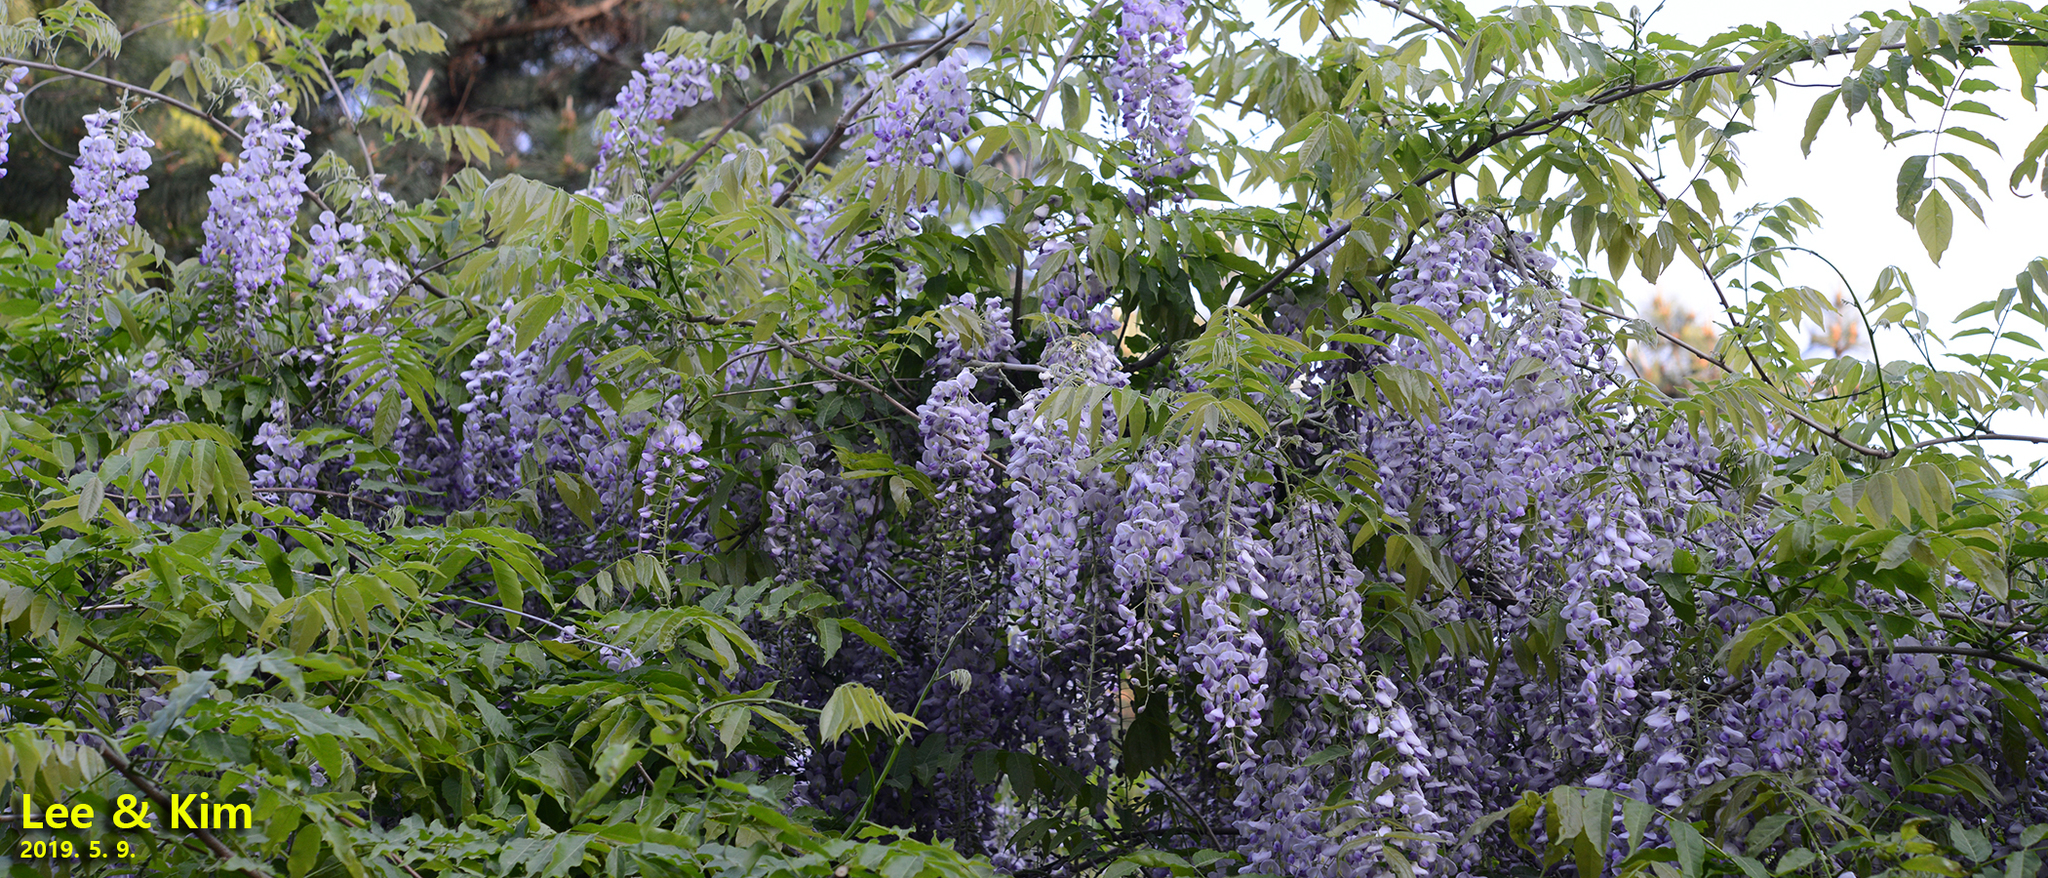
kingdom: Plantae
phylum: Tracheophyta
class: Magnoliopsida
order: Fabales
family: Fabaceae
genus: Wisteria
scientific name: Wisteria floribunda
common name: Japanese wisteria
